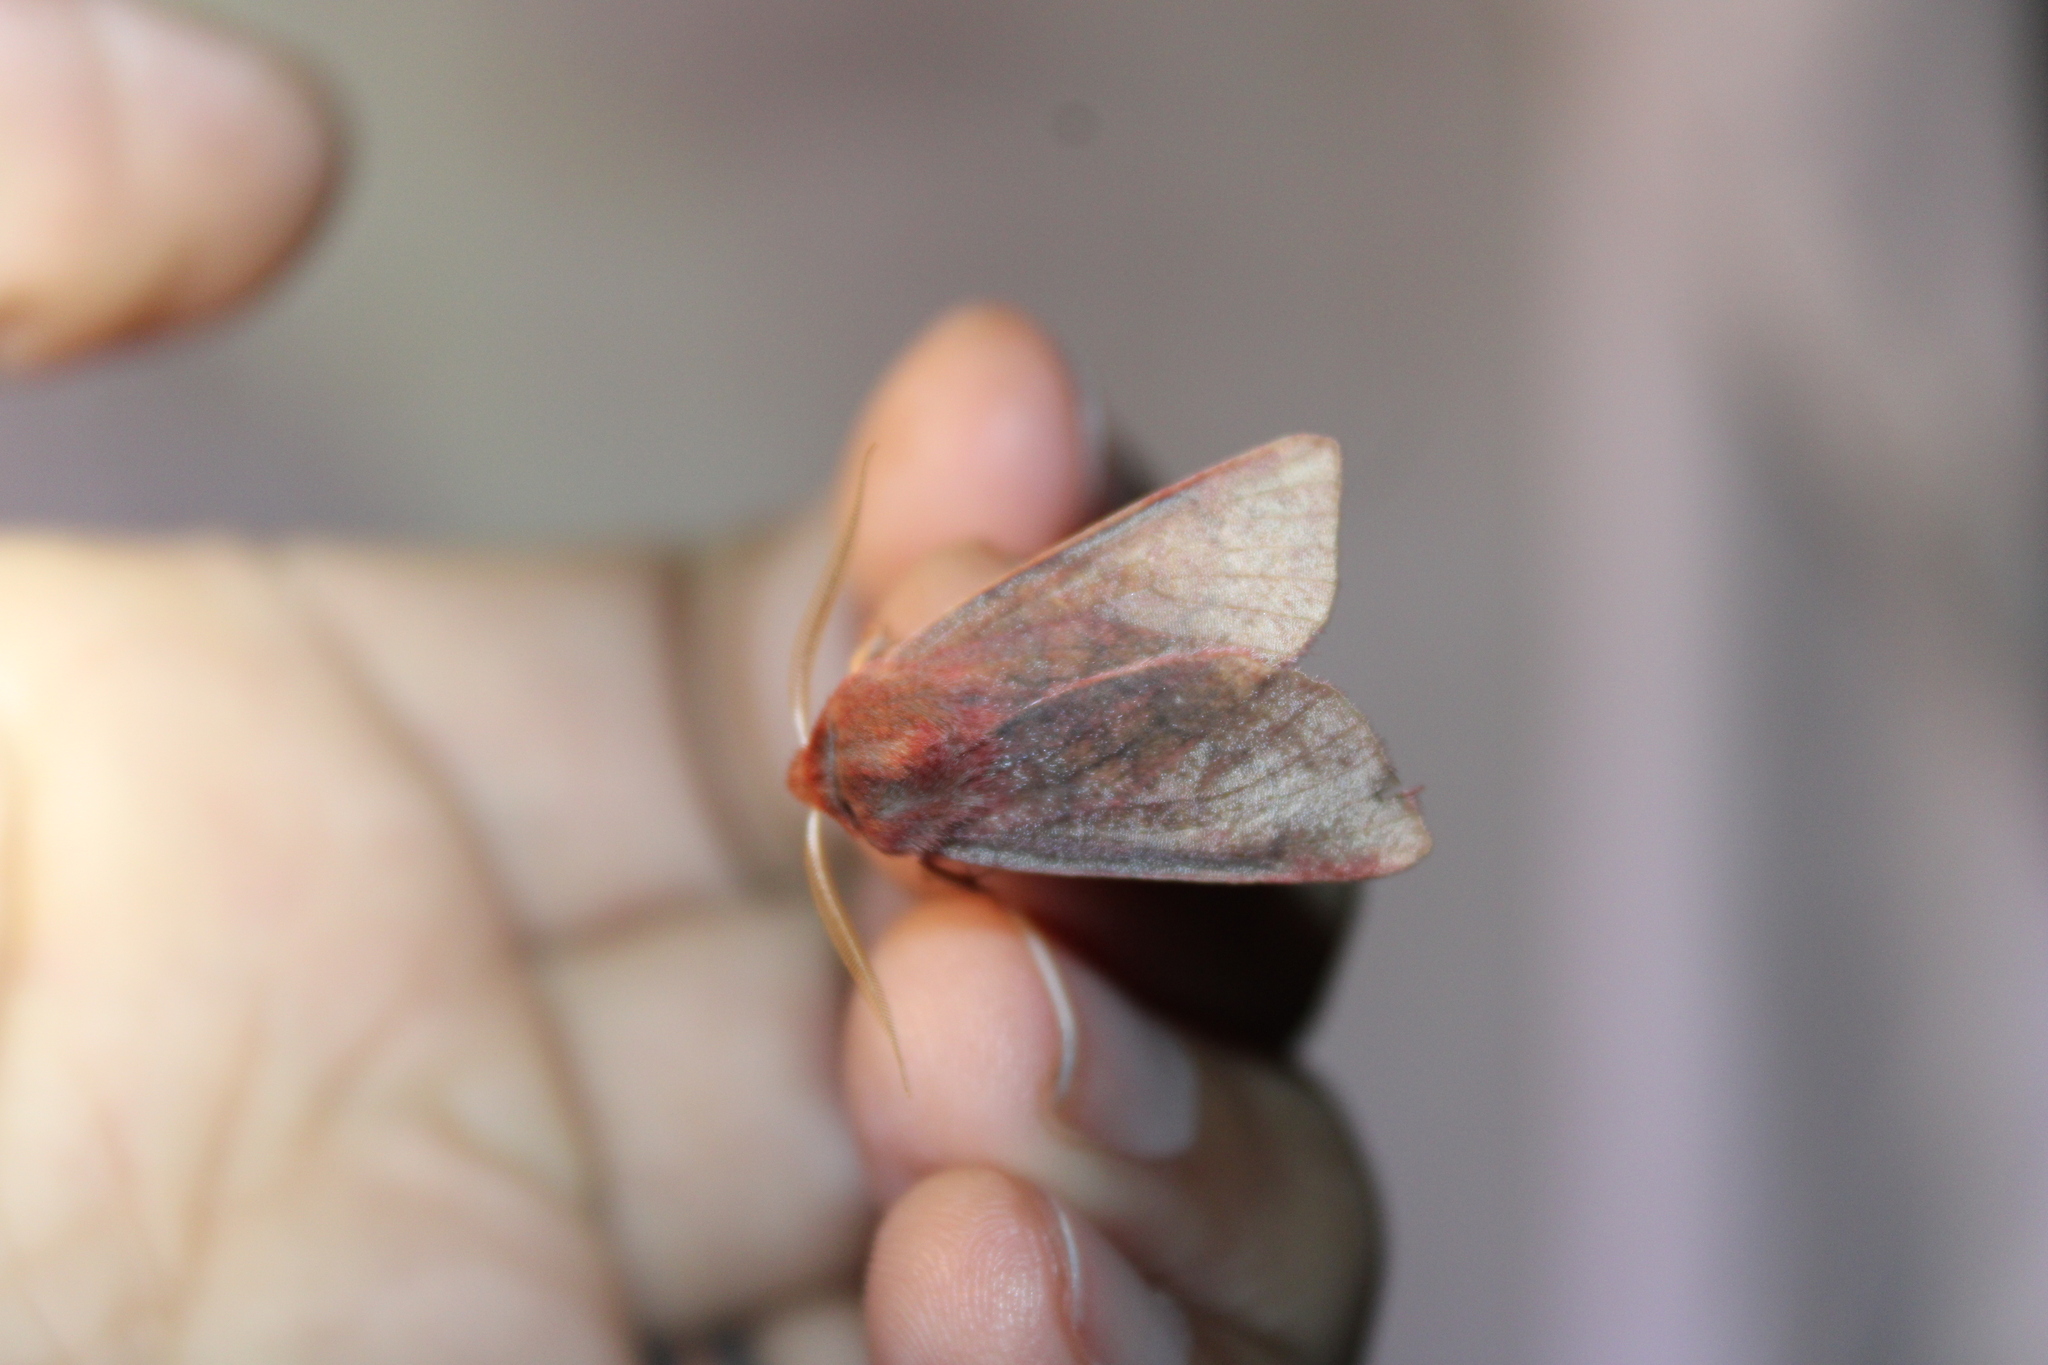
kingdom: Animalia
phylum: Arthropoda
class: Insecta
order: Lepidoptera
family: Noctuidae
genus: Psectraglaea
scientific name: Psectraglaea carnosa
